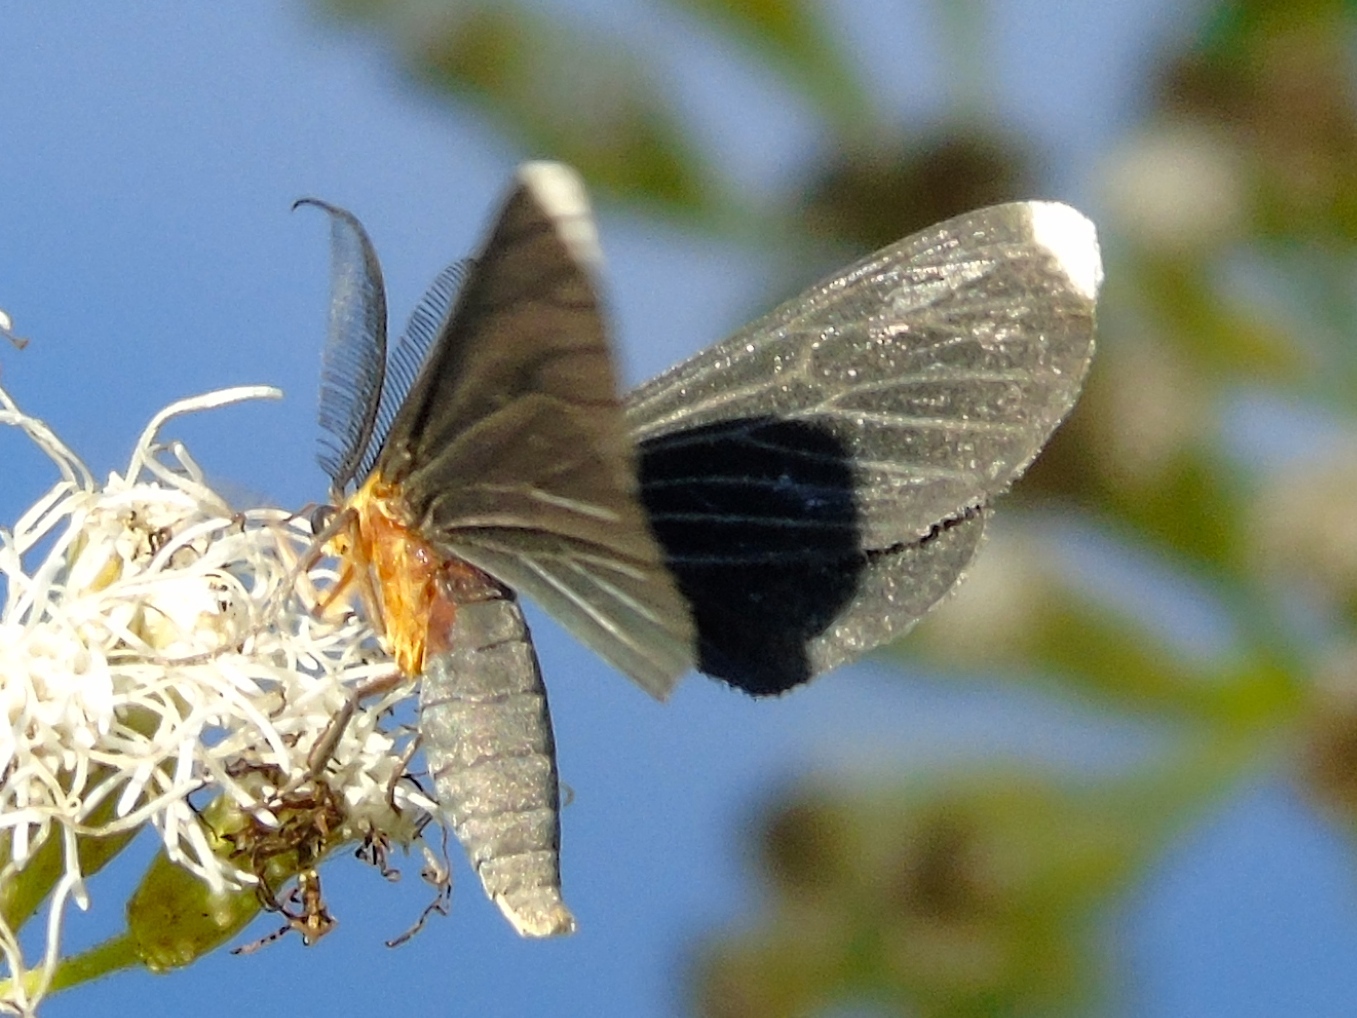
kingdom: Animalia
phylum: Arthropoda
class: Insecta
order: Lepidoptera
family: Geometridae
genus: Melanchroia
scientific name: Melanchroia chephise
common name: White-tipped black
